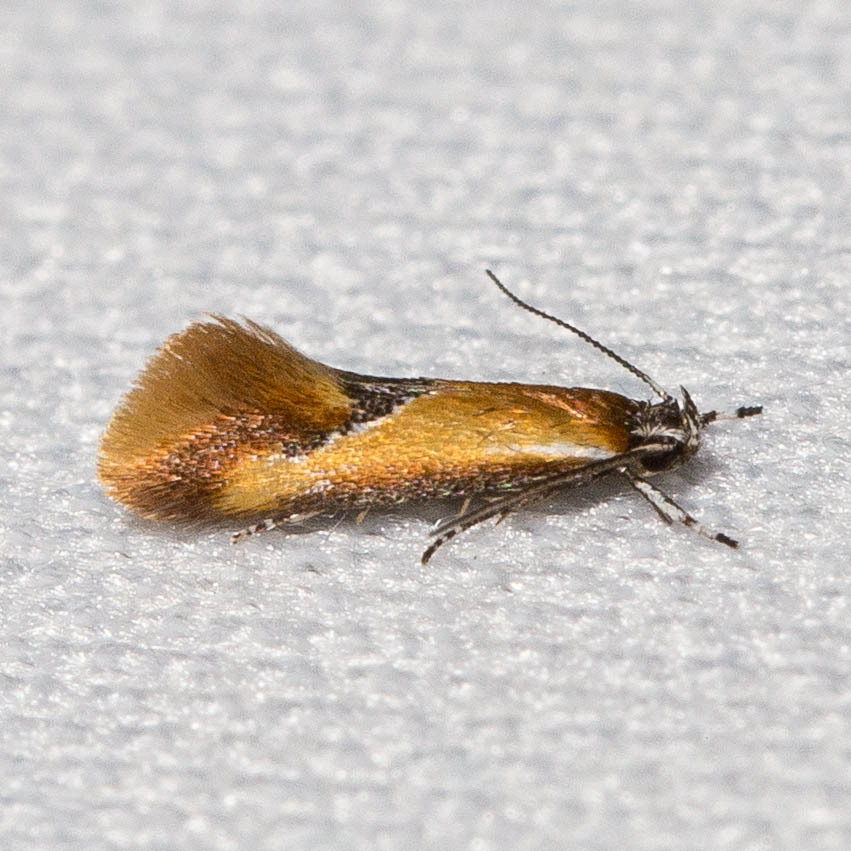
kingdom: Animalia
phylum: Arthropoda
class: Insecta
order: Lepidoptera
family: Oecophoridae
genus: Batia
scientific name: Batia lunaris
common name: Moth
